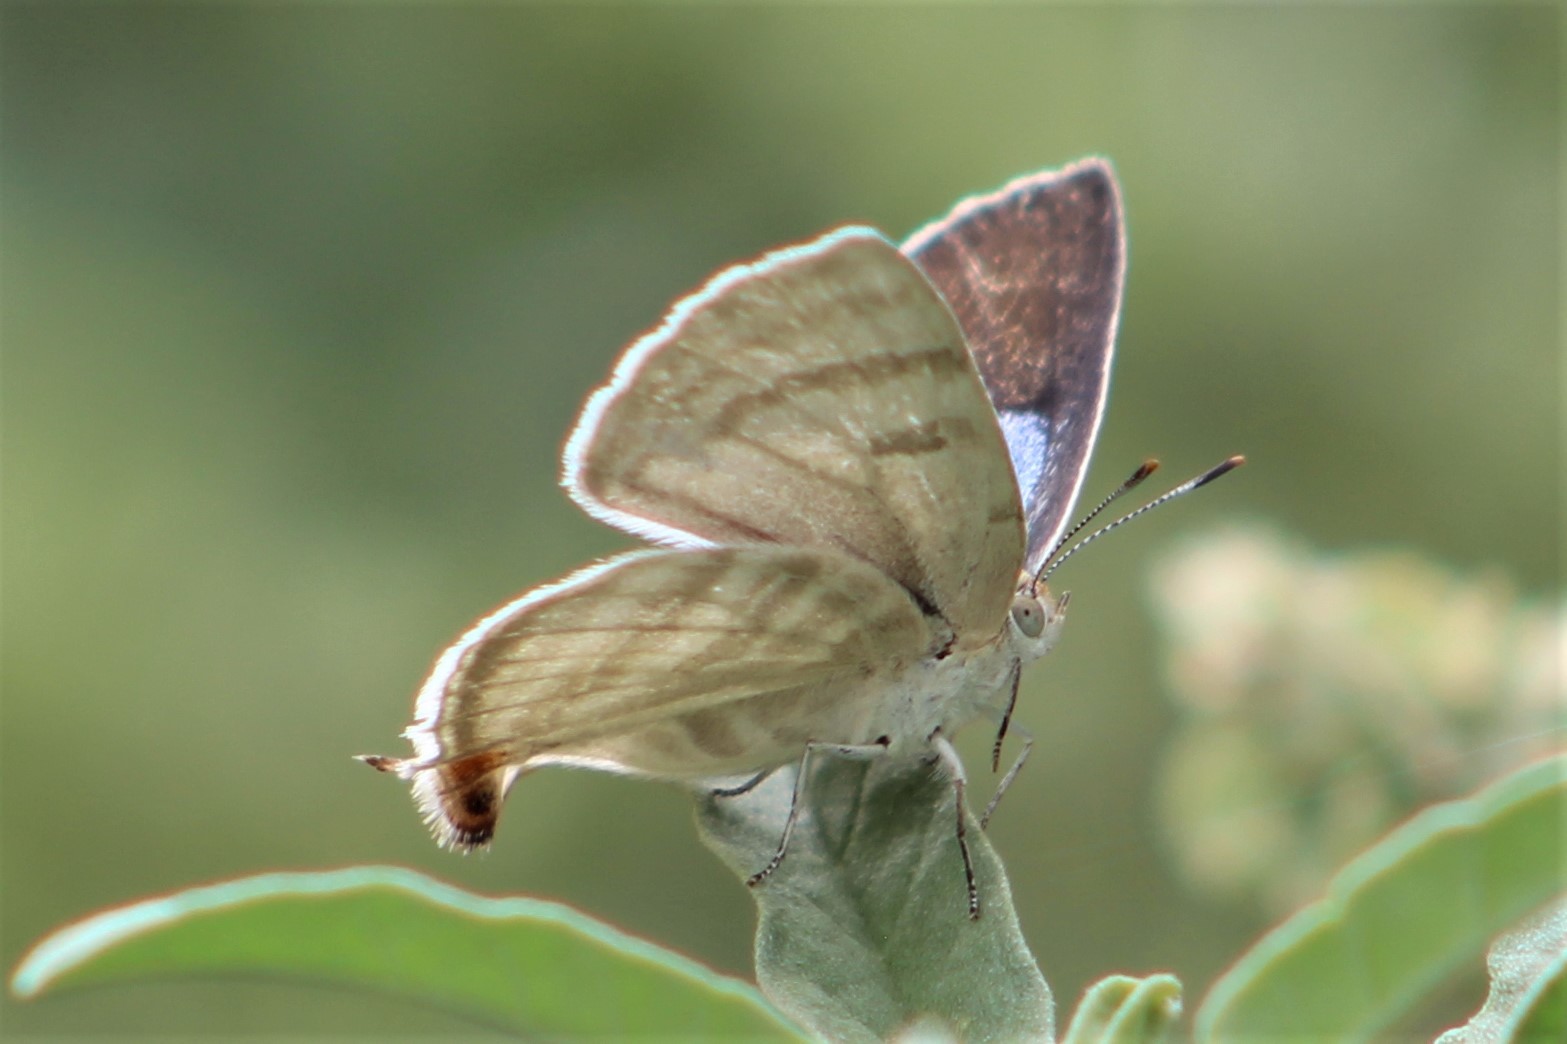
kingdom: Animalia
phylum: Arthropoda
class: Insecta
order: Lepidoptera
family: Lycaenidae
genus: Dolymorpha
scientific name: Dolymorpha jada
